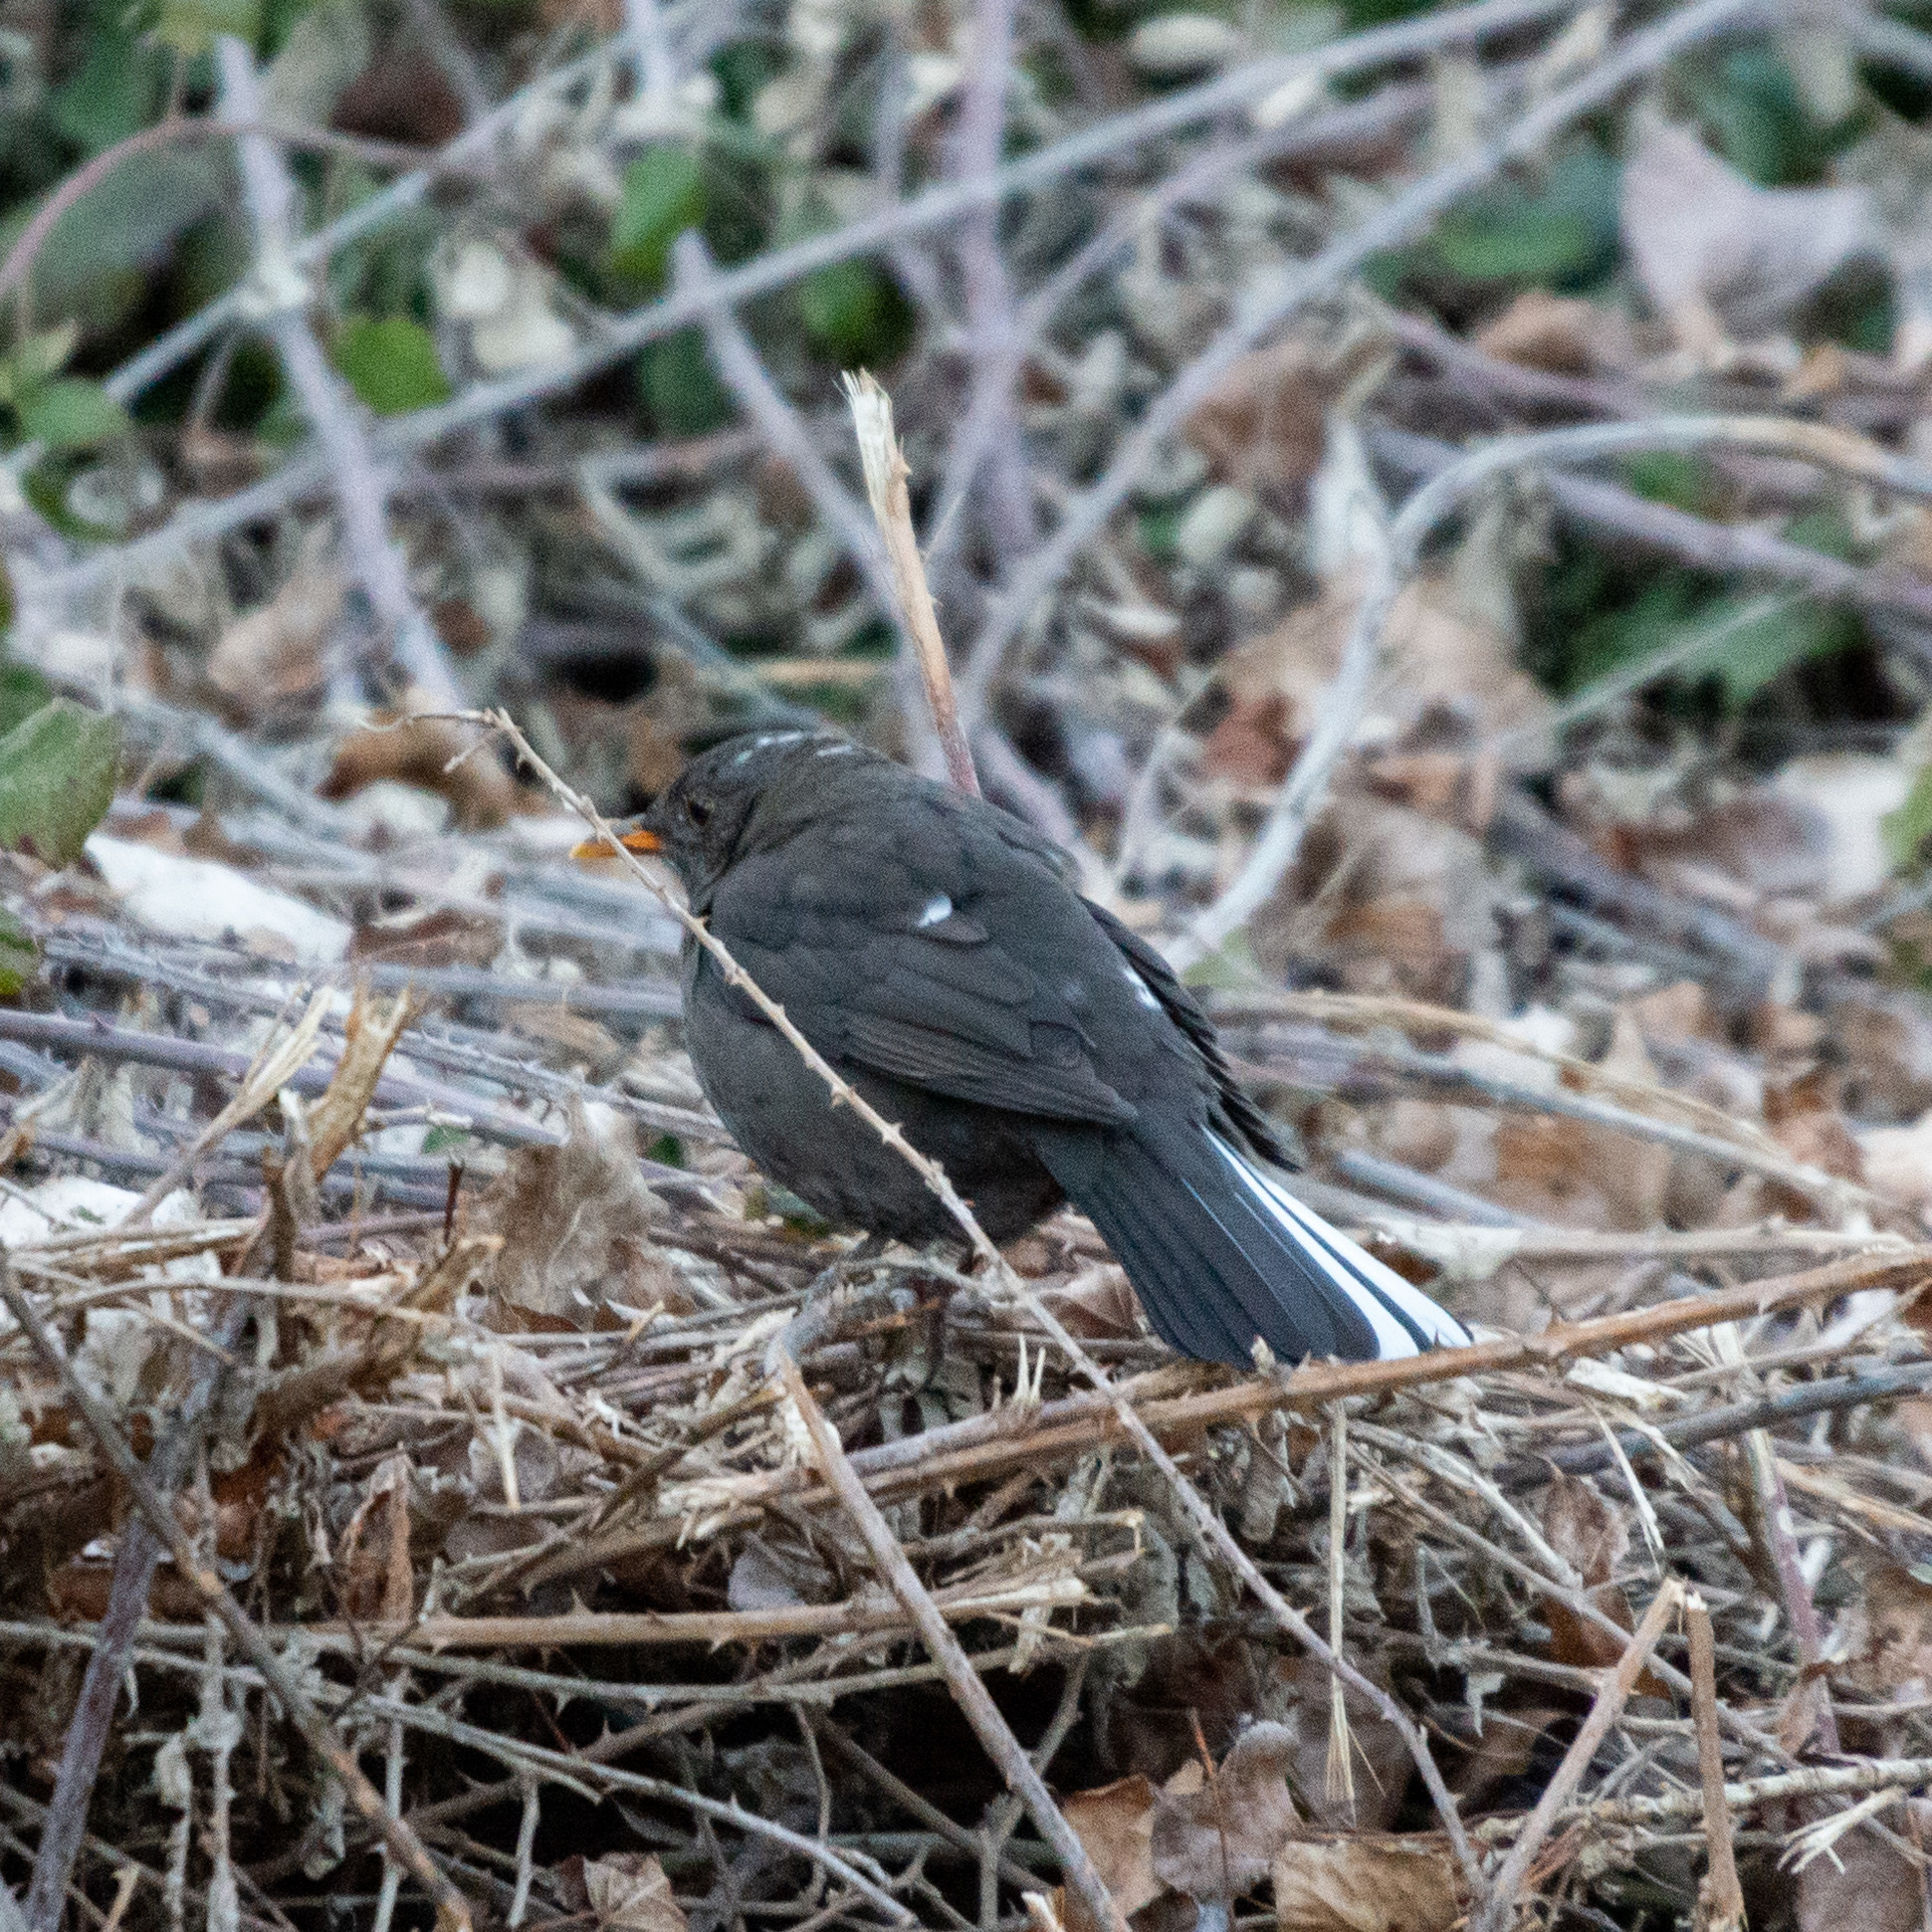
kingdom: Animalia
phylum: Chordata
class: Aves
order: Passeriformes
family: Turdidae
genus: Turdus
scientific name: Turdus merula
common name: Common blackbird
